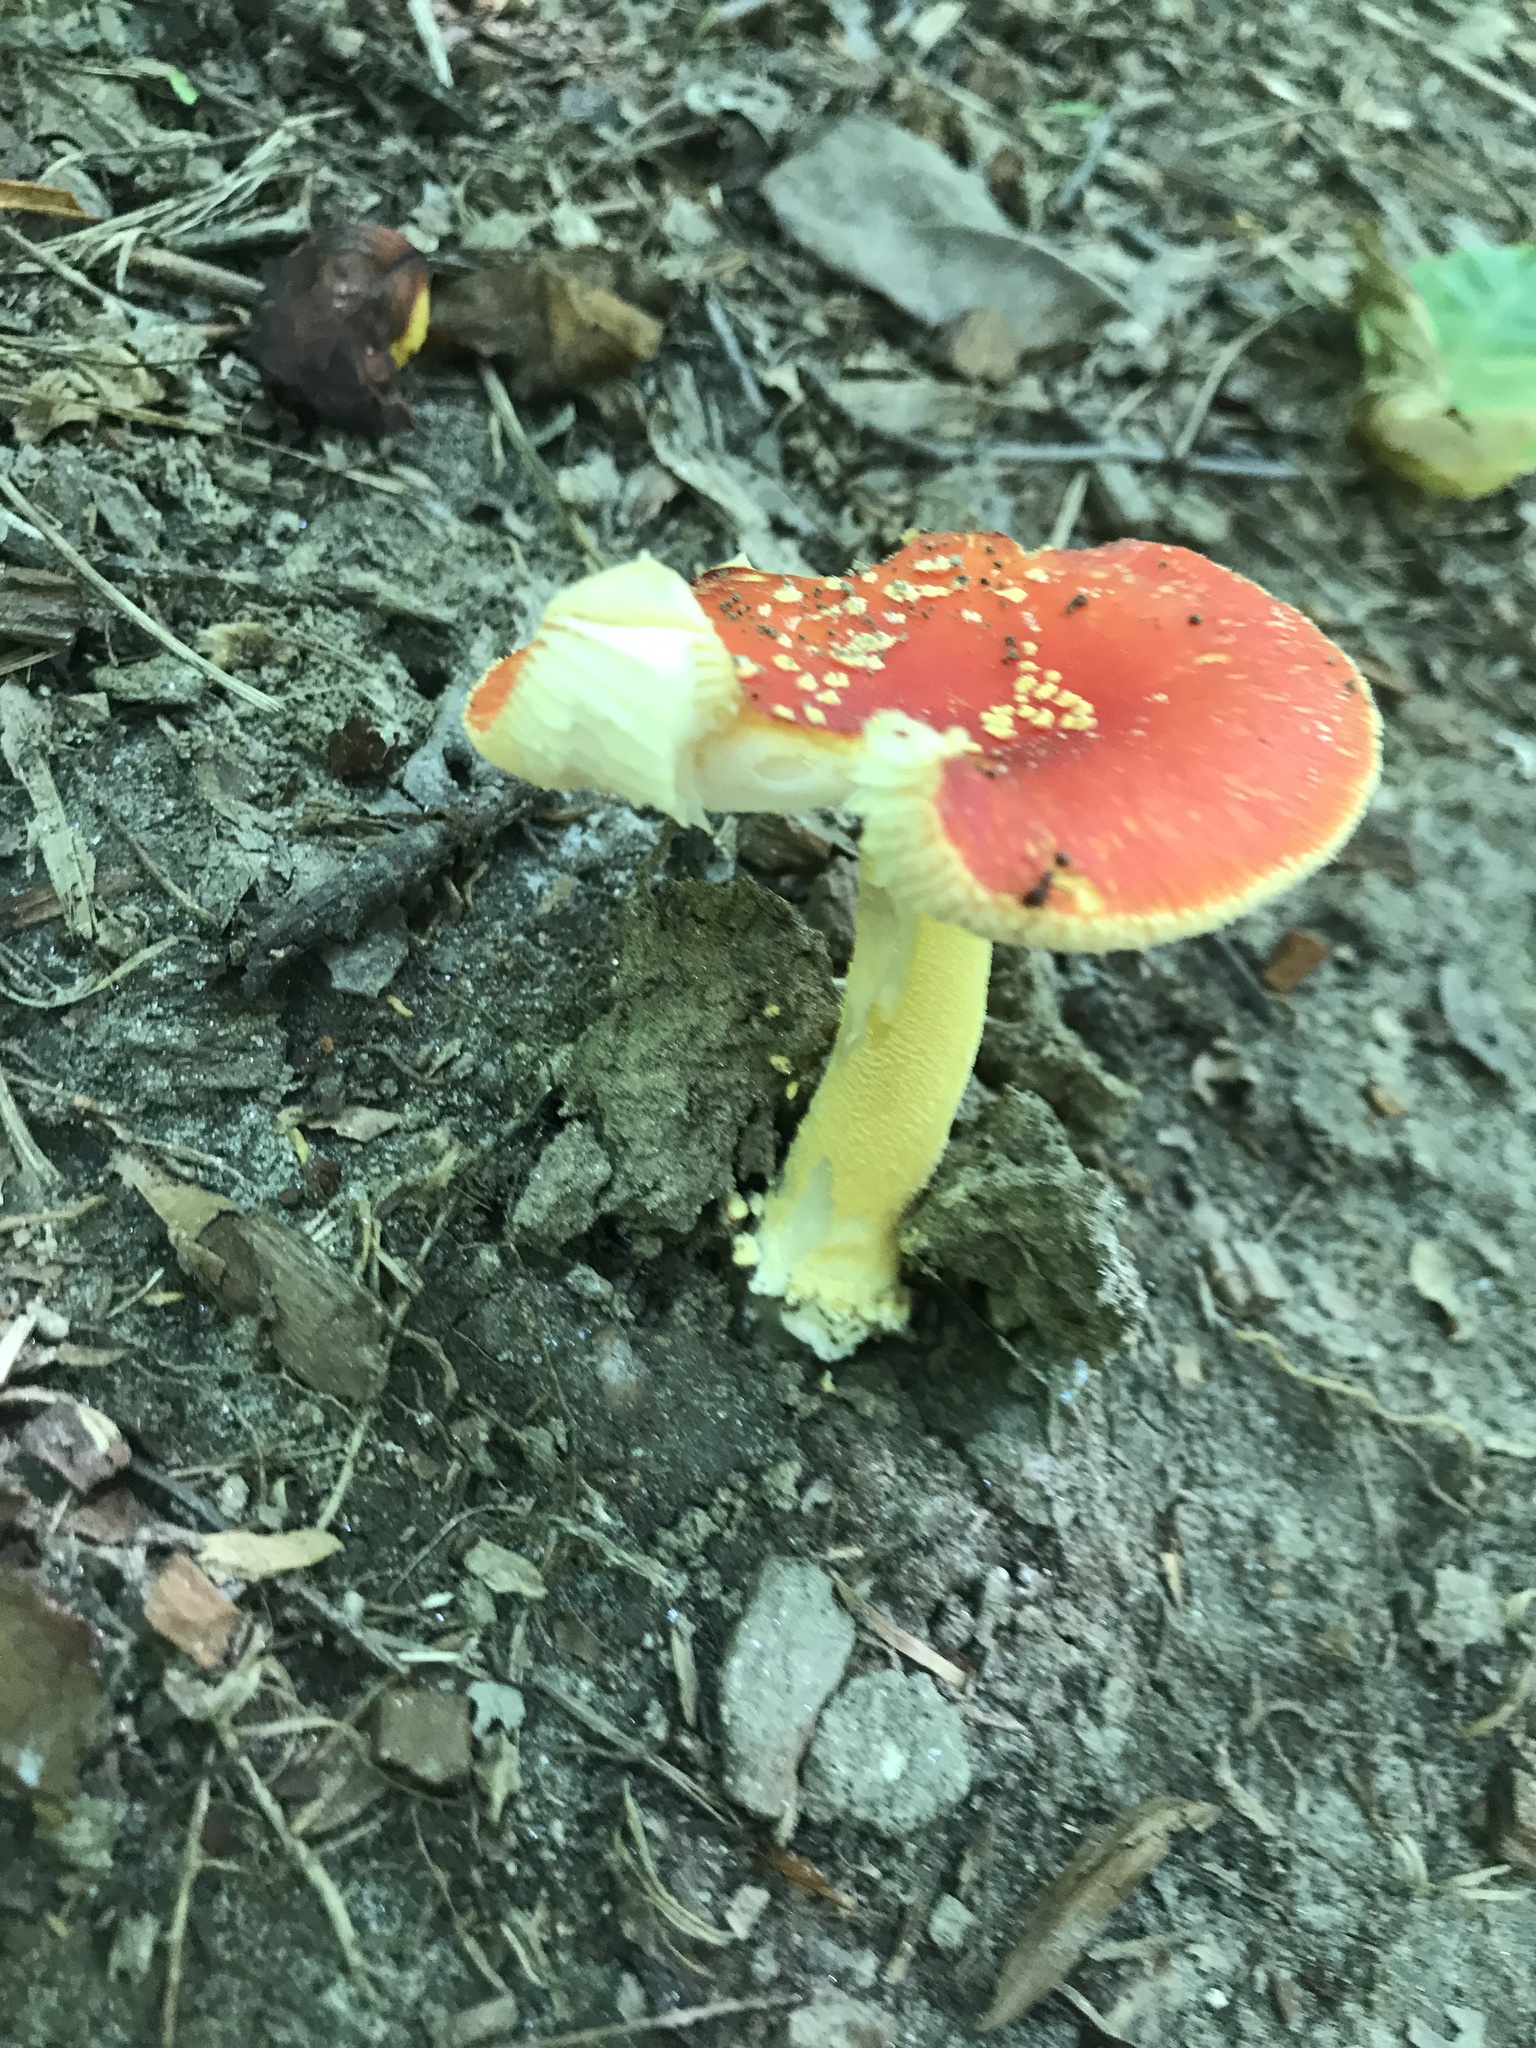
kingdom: Fungi
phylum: Basidiomycota
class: Agaricomycetes
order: Agaricales
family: Amanitaceae
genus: Amanita
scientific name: Amanita parcivolvata
